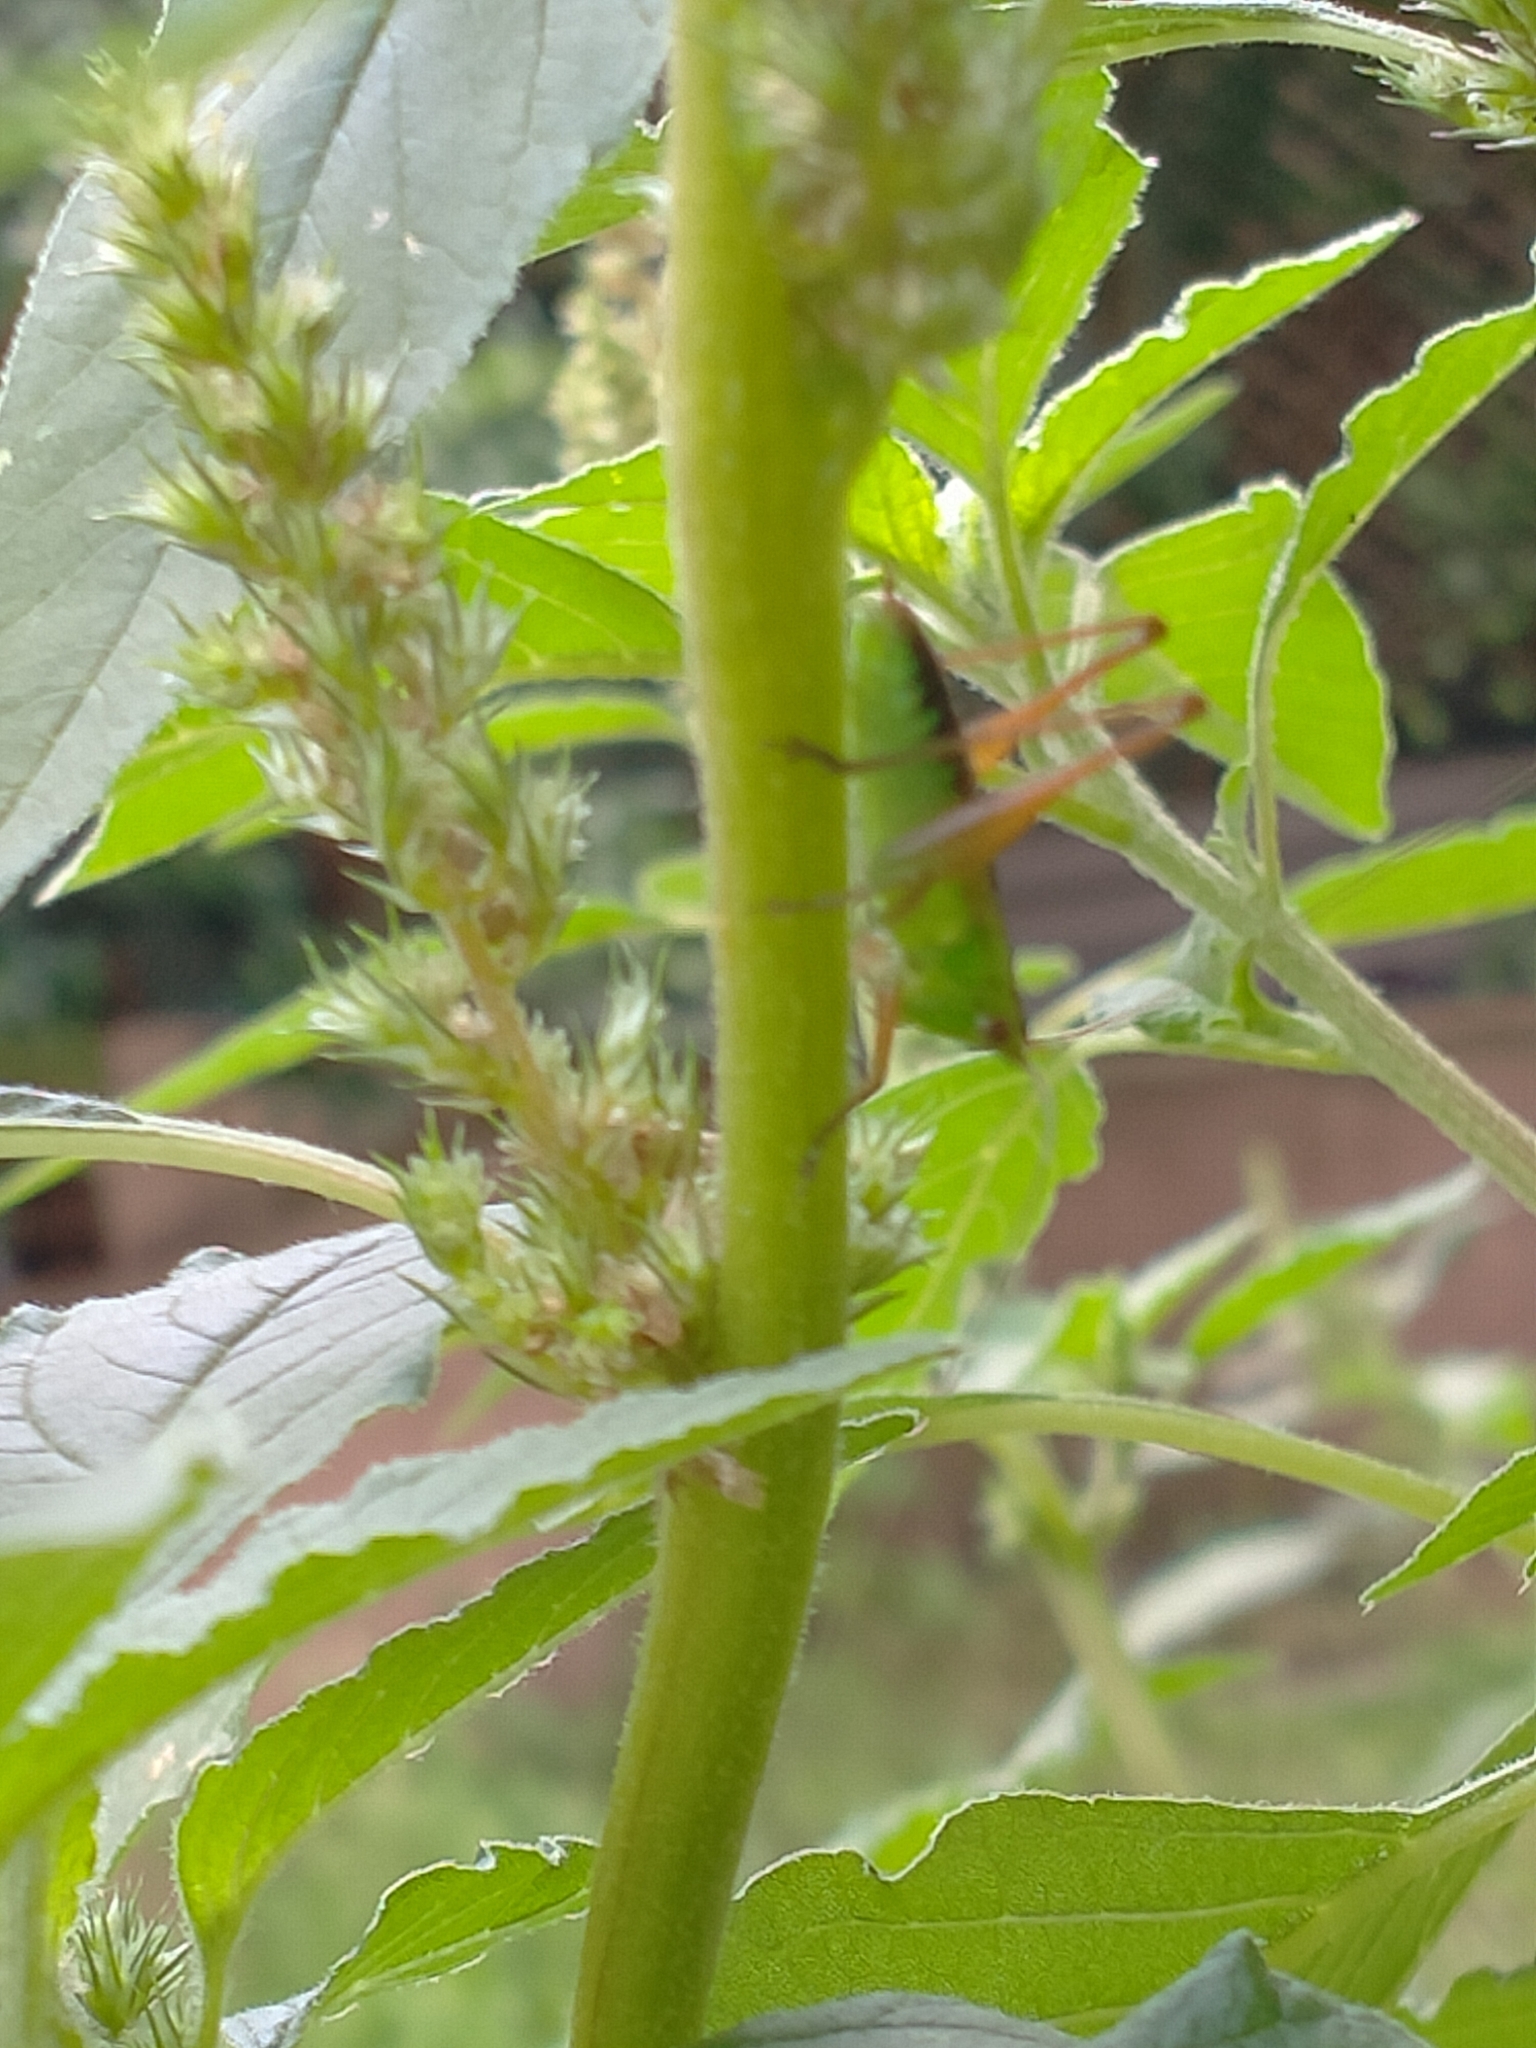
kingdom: Animalia
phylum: Arthropoda
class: Insecta
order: Orthoptera
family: Tettigoniidae
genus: Conocephalus
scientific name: Conocephalus semivittatus
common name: Blackish meadow katydid
